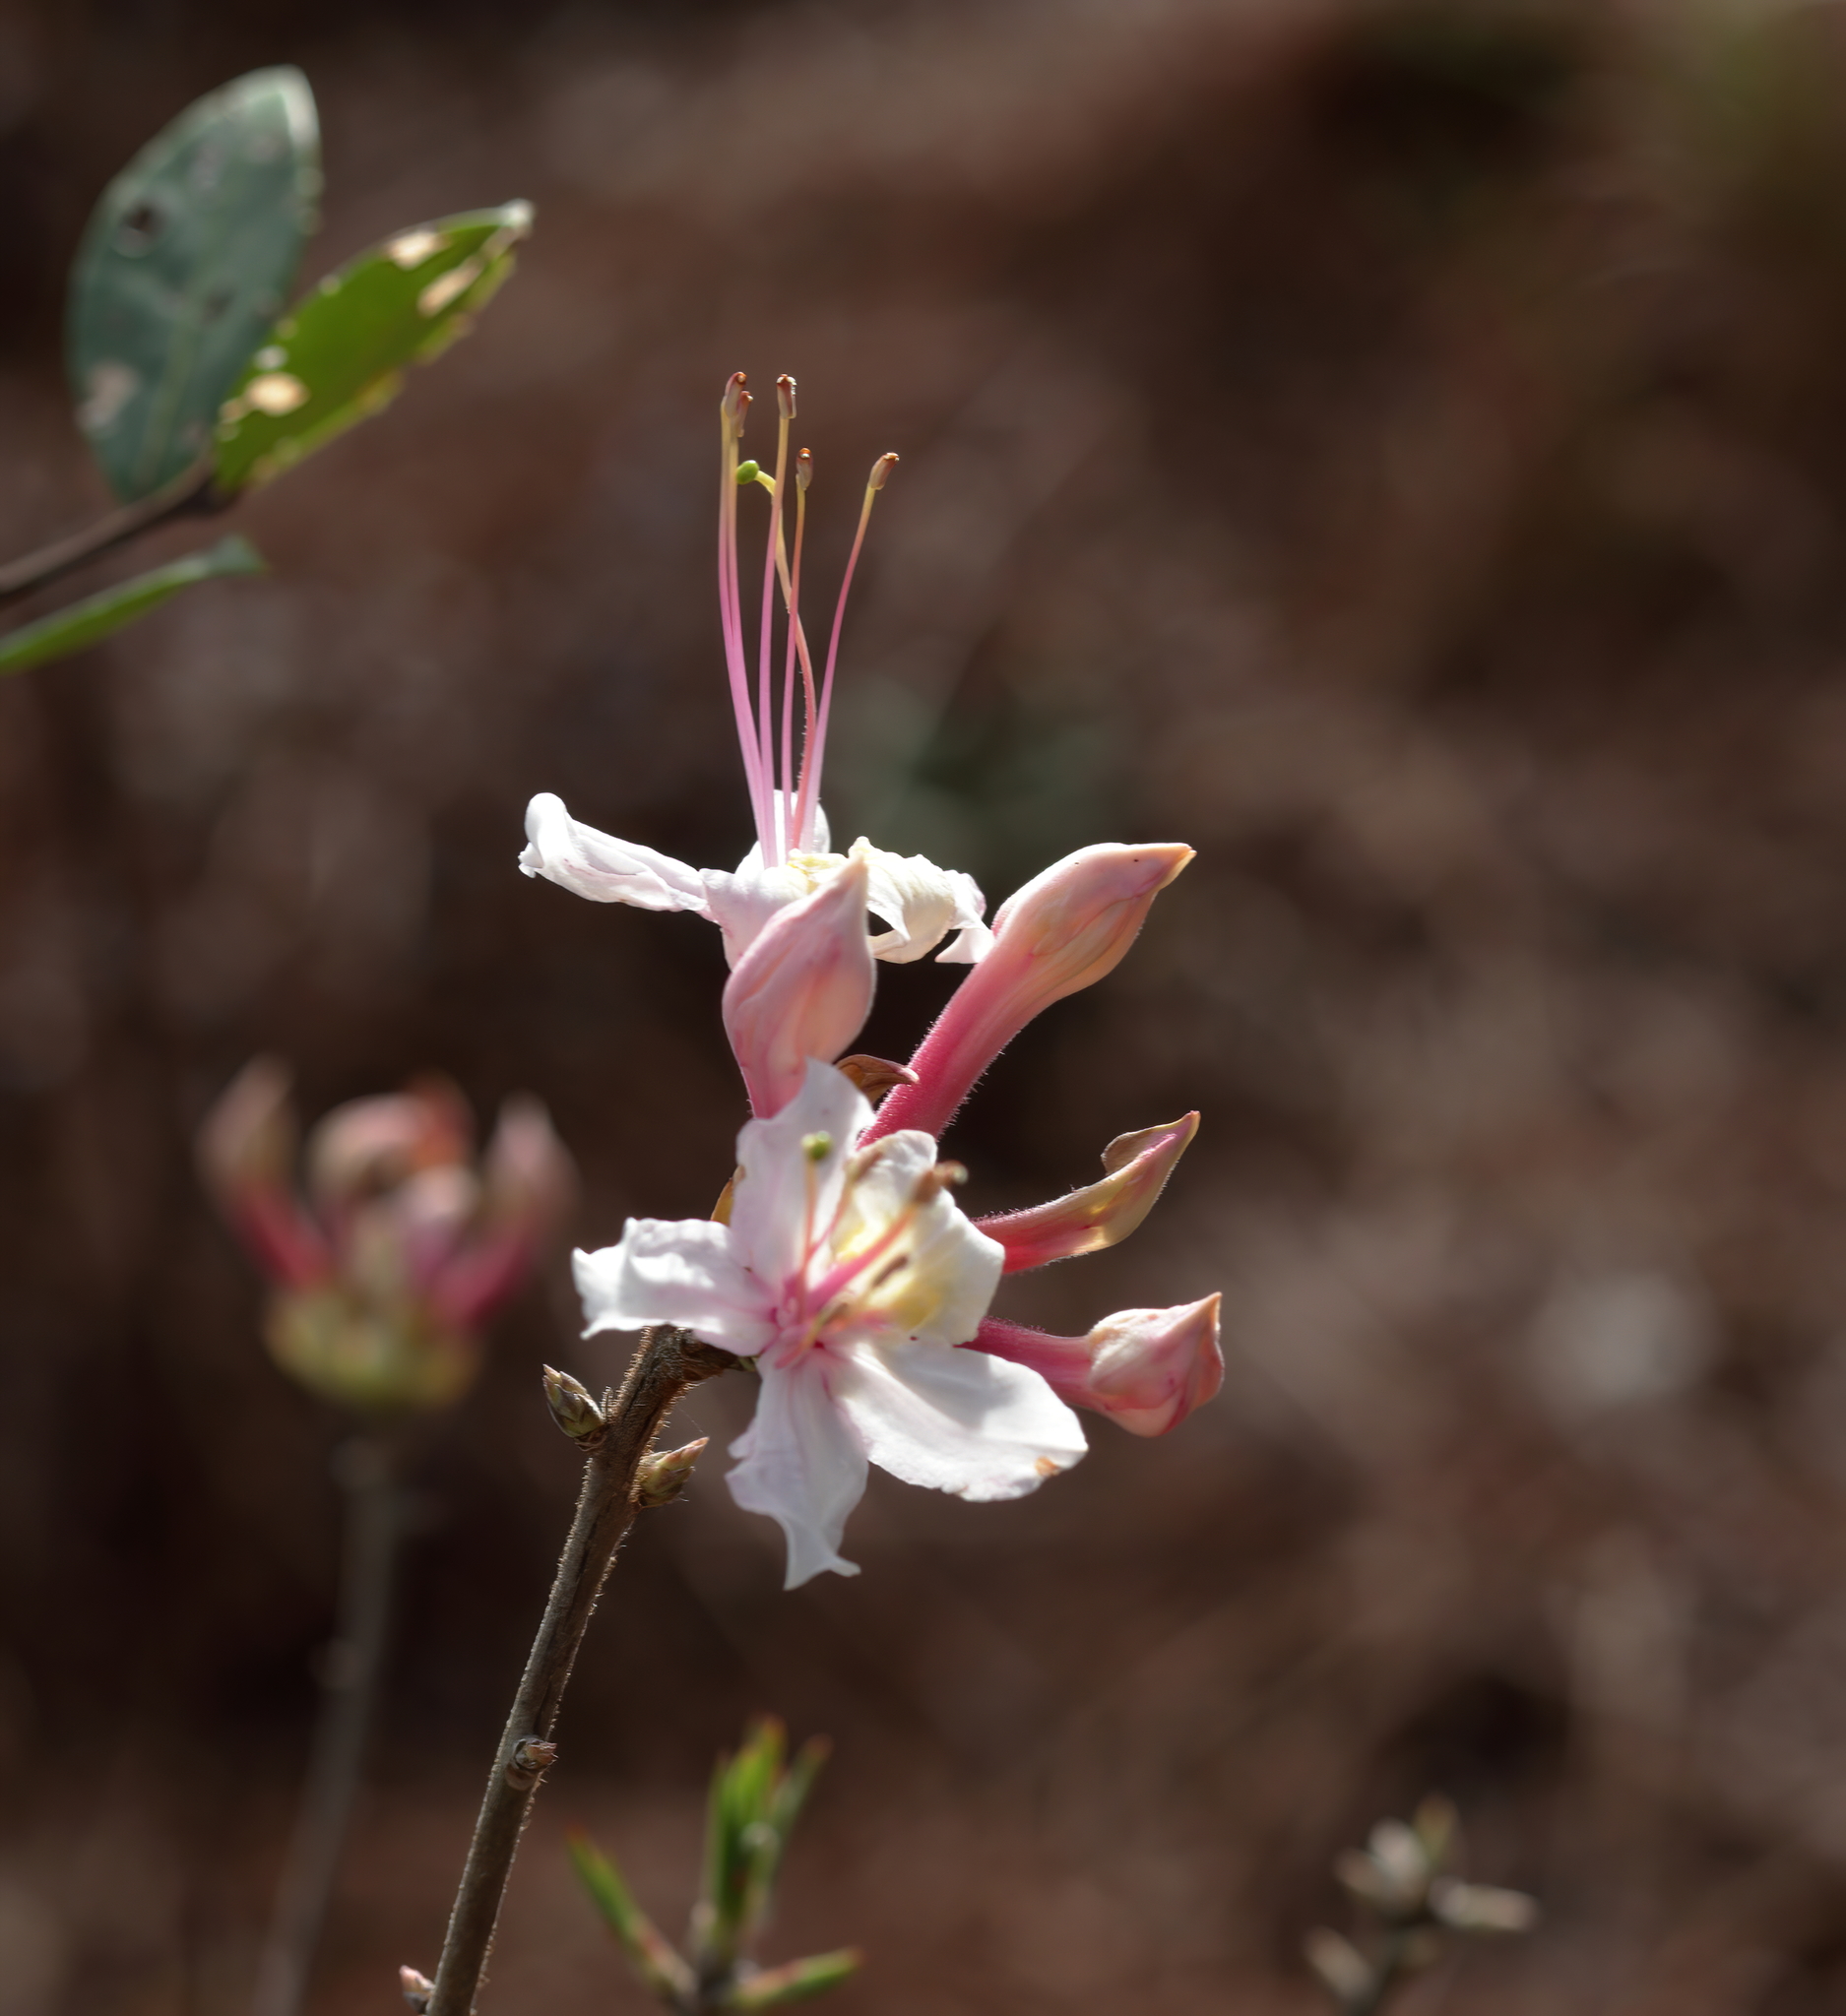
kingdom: Plantae
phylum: Tracheophyta
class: Magnoliopsida
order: Ericales
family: Ericaceae
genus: Rhododendron
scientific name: Rhododendron canescens
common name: Mountain azalea
